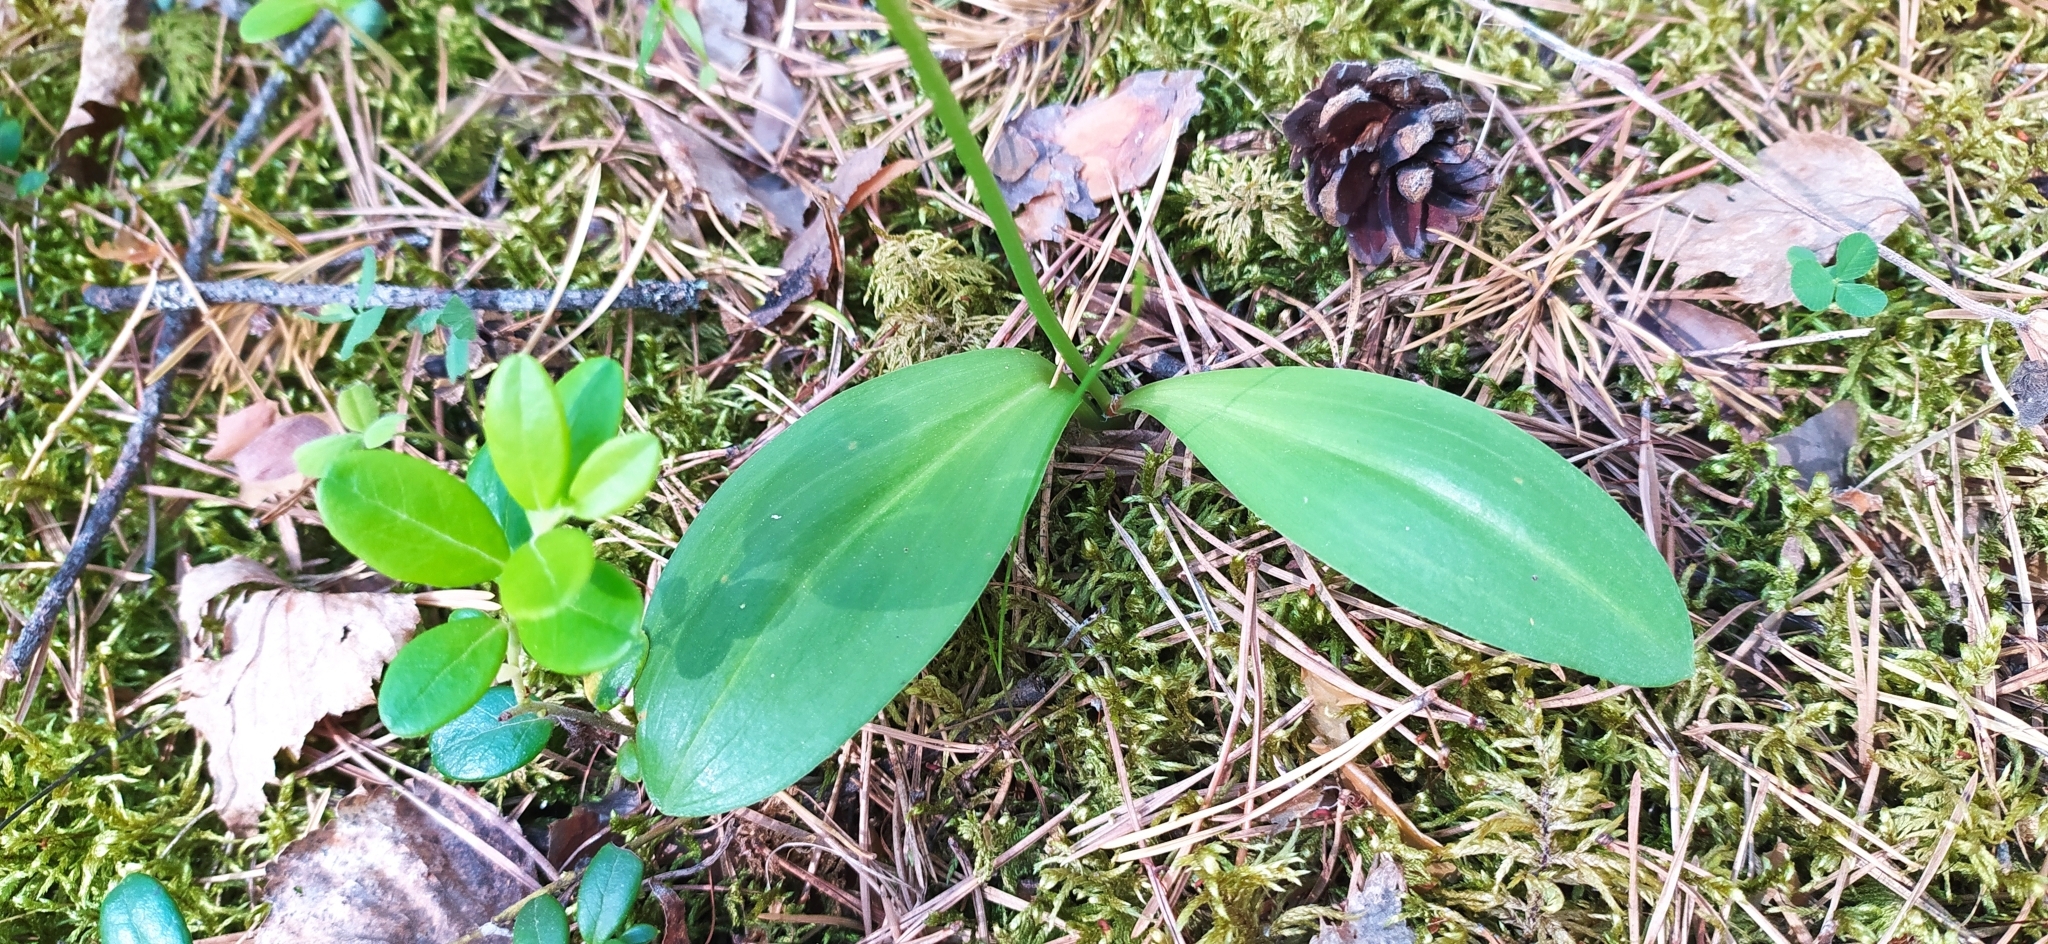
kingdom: Plantae
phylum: Tracheophyta
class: Liliopsida
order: Asparagales
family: Orchidaceae
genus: Platanthera
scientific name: Platanthera bifolia
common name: Lesser butterfly-orchid
